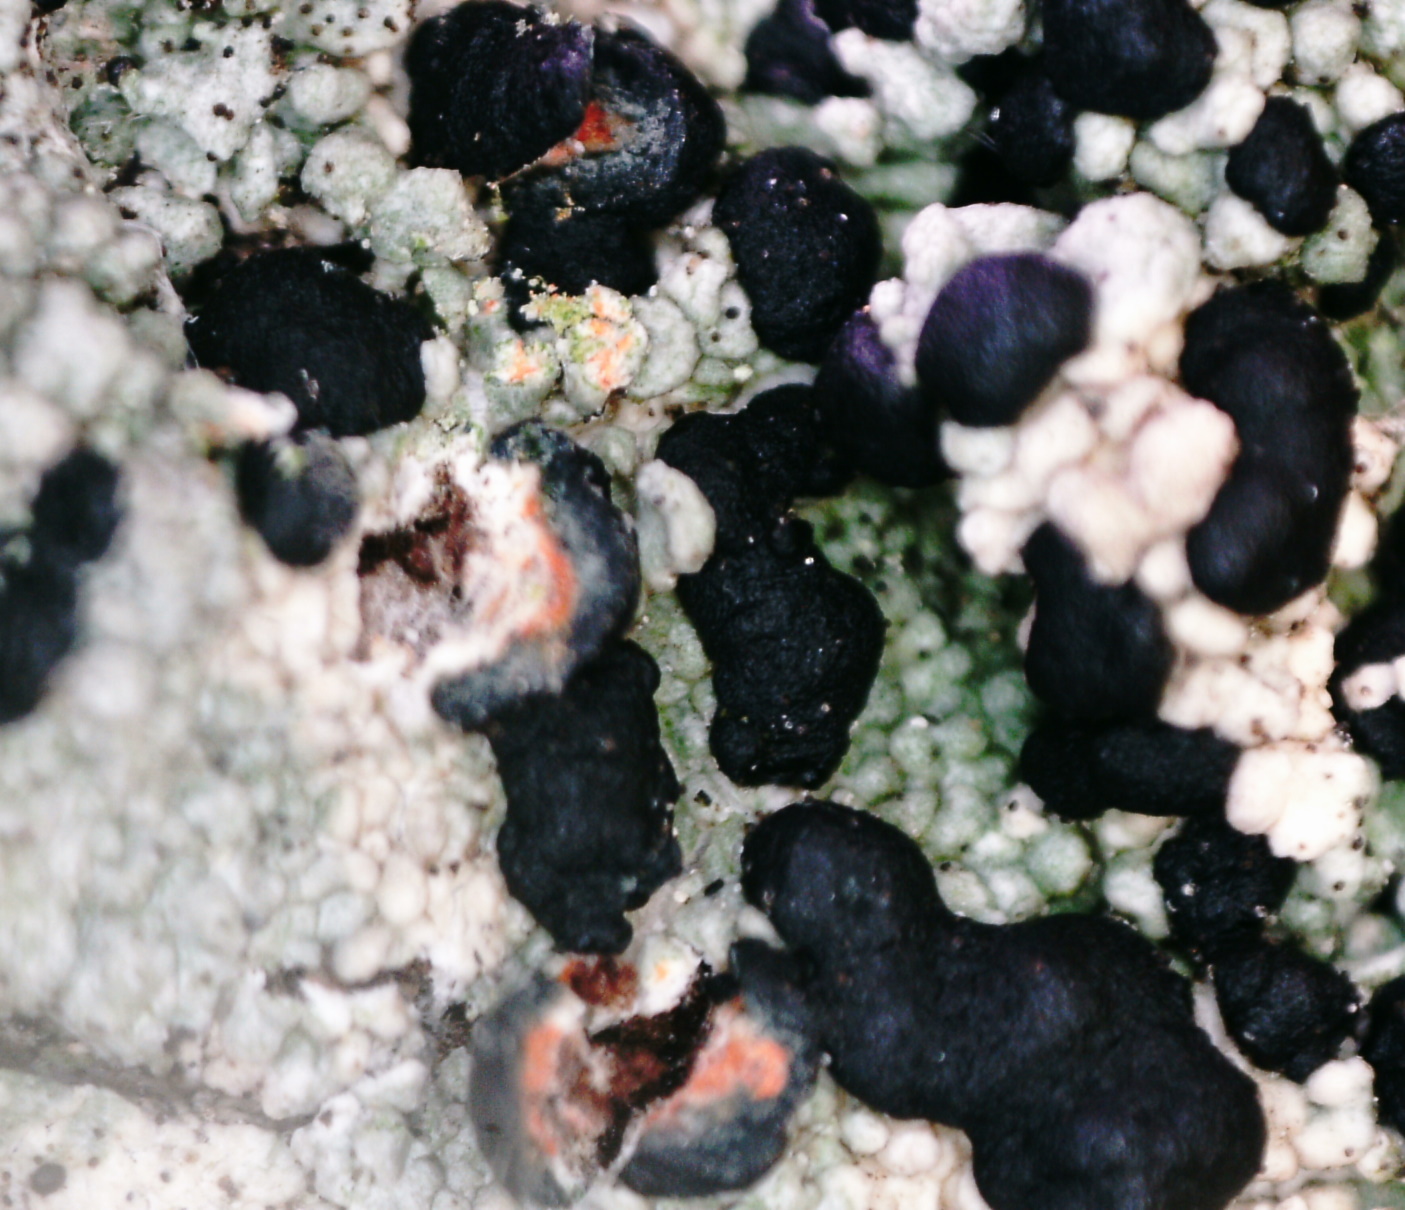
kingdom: Fungi
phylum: Ascomycota
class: Lecanoromycetes
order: Lecanorales
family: Tephromelataceae
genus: Mycoblastus
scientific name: Mycoblastus sanguinarius
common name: Bloody-heart lichen
